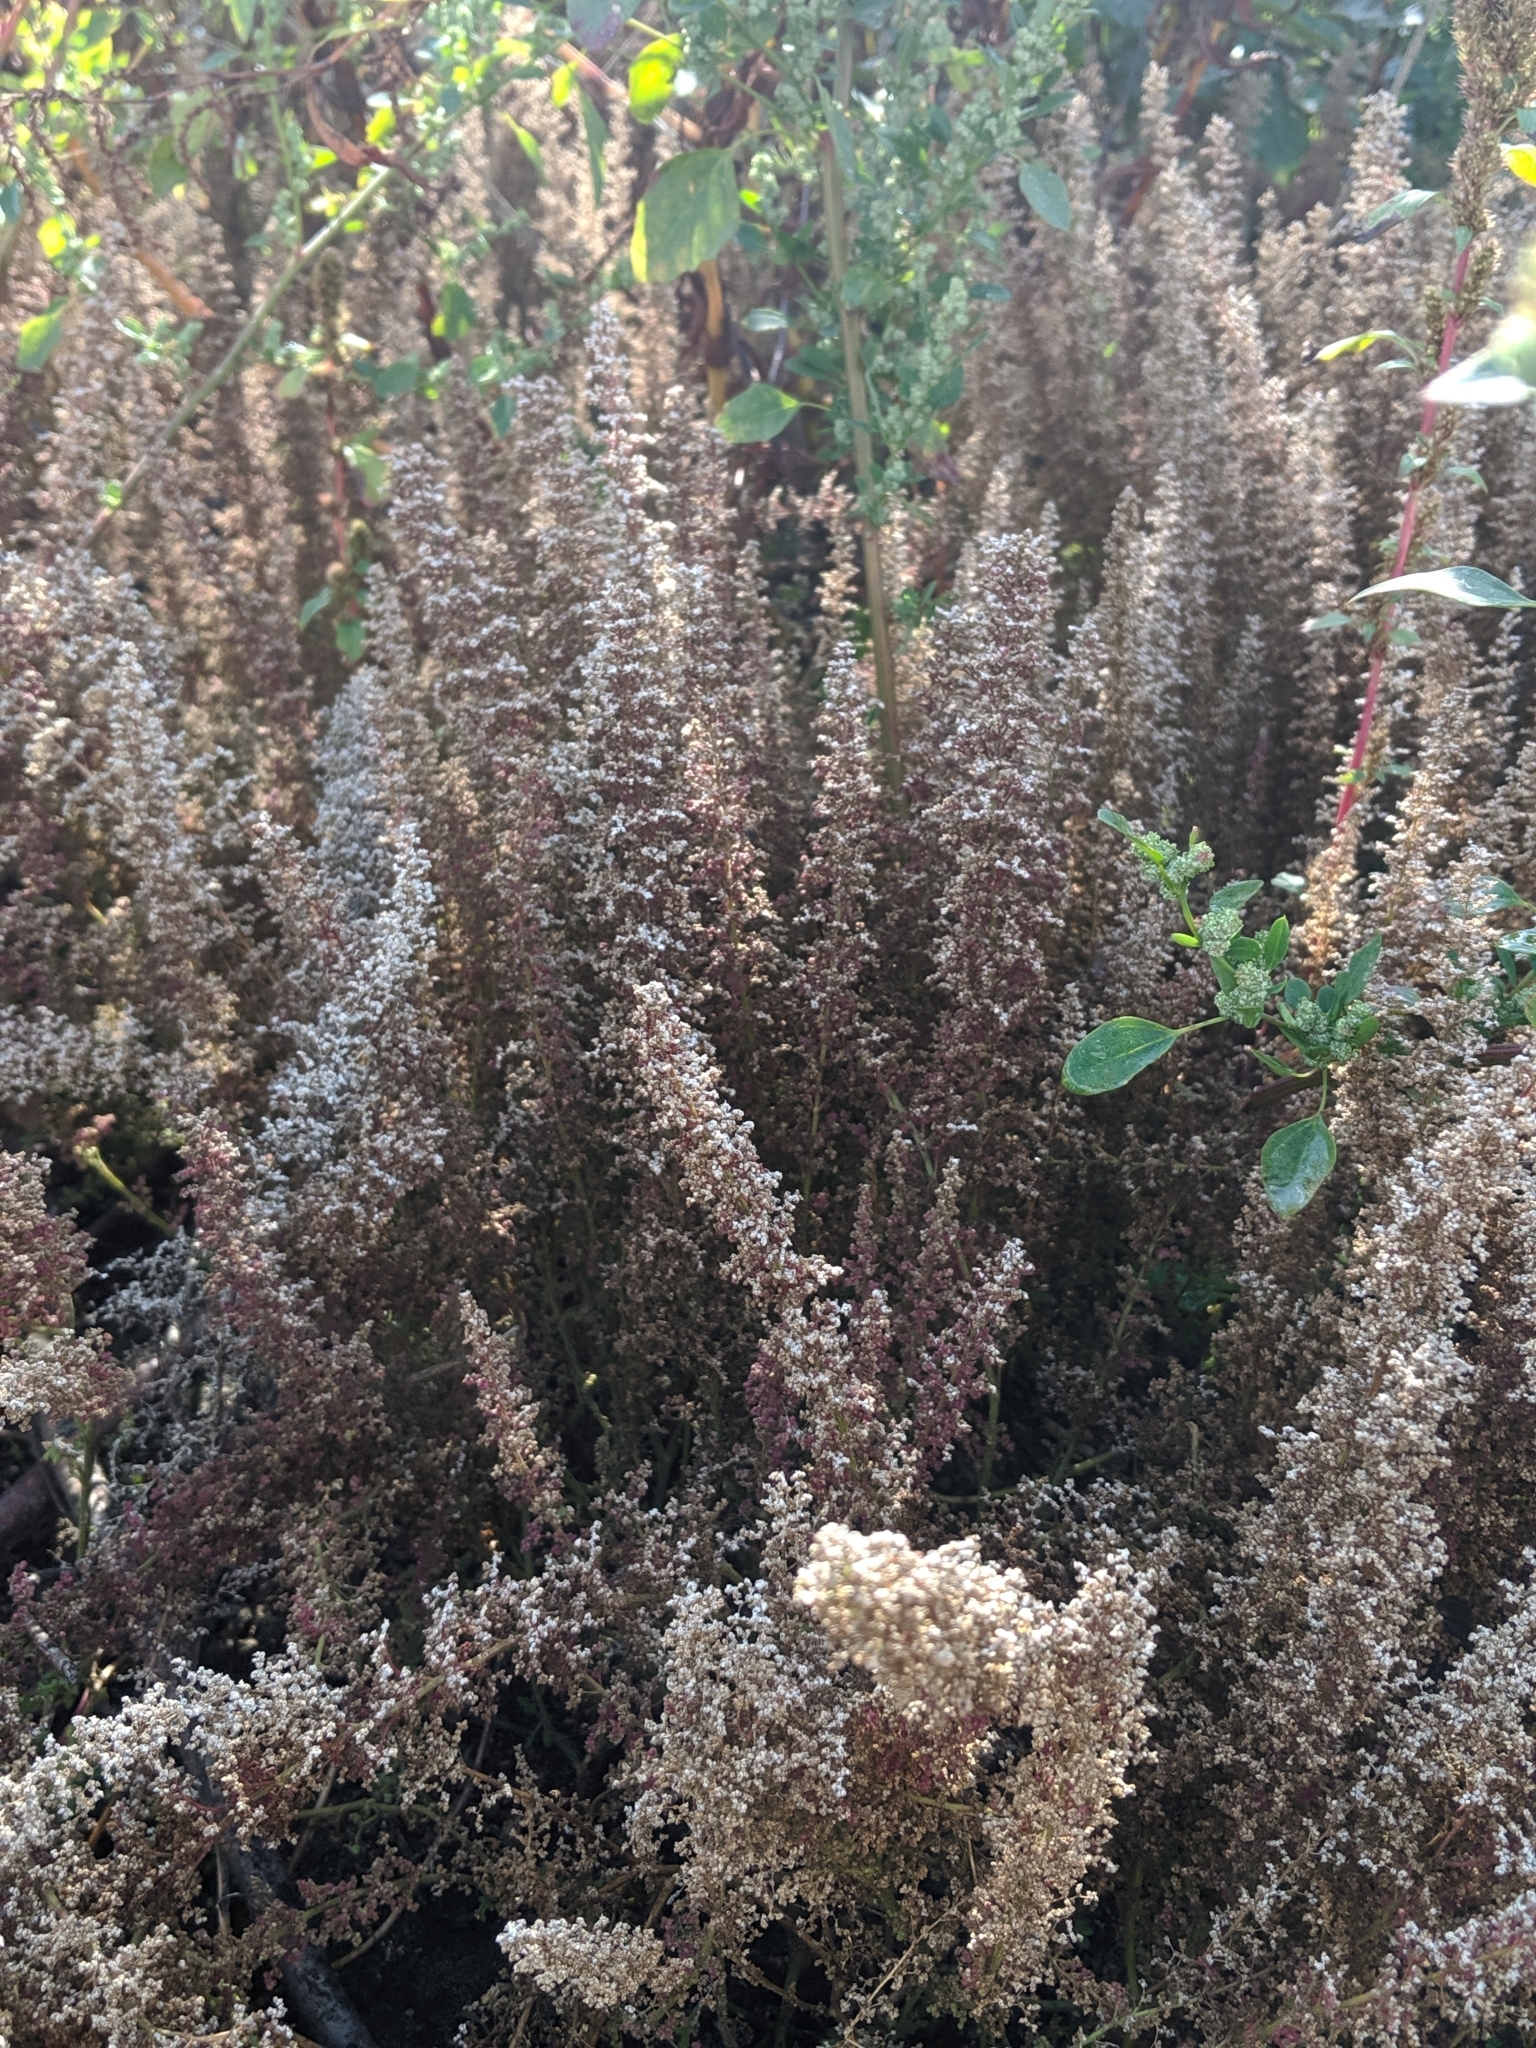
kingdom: Plantae
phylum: Tracheophyta
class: Magnoliopsida
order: Caryophyllales
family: Amaranthaceae
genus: Dysphania
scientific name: Dysphania botrys
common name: Feather-geranium
